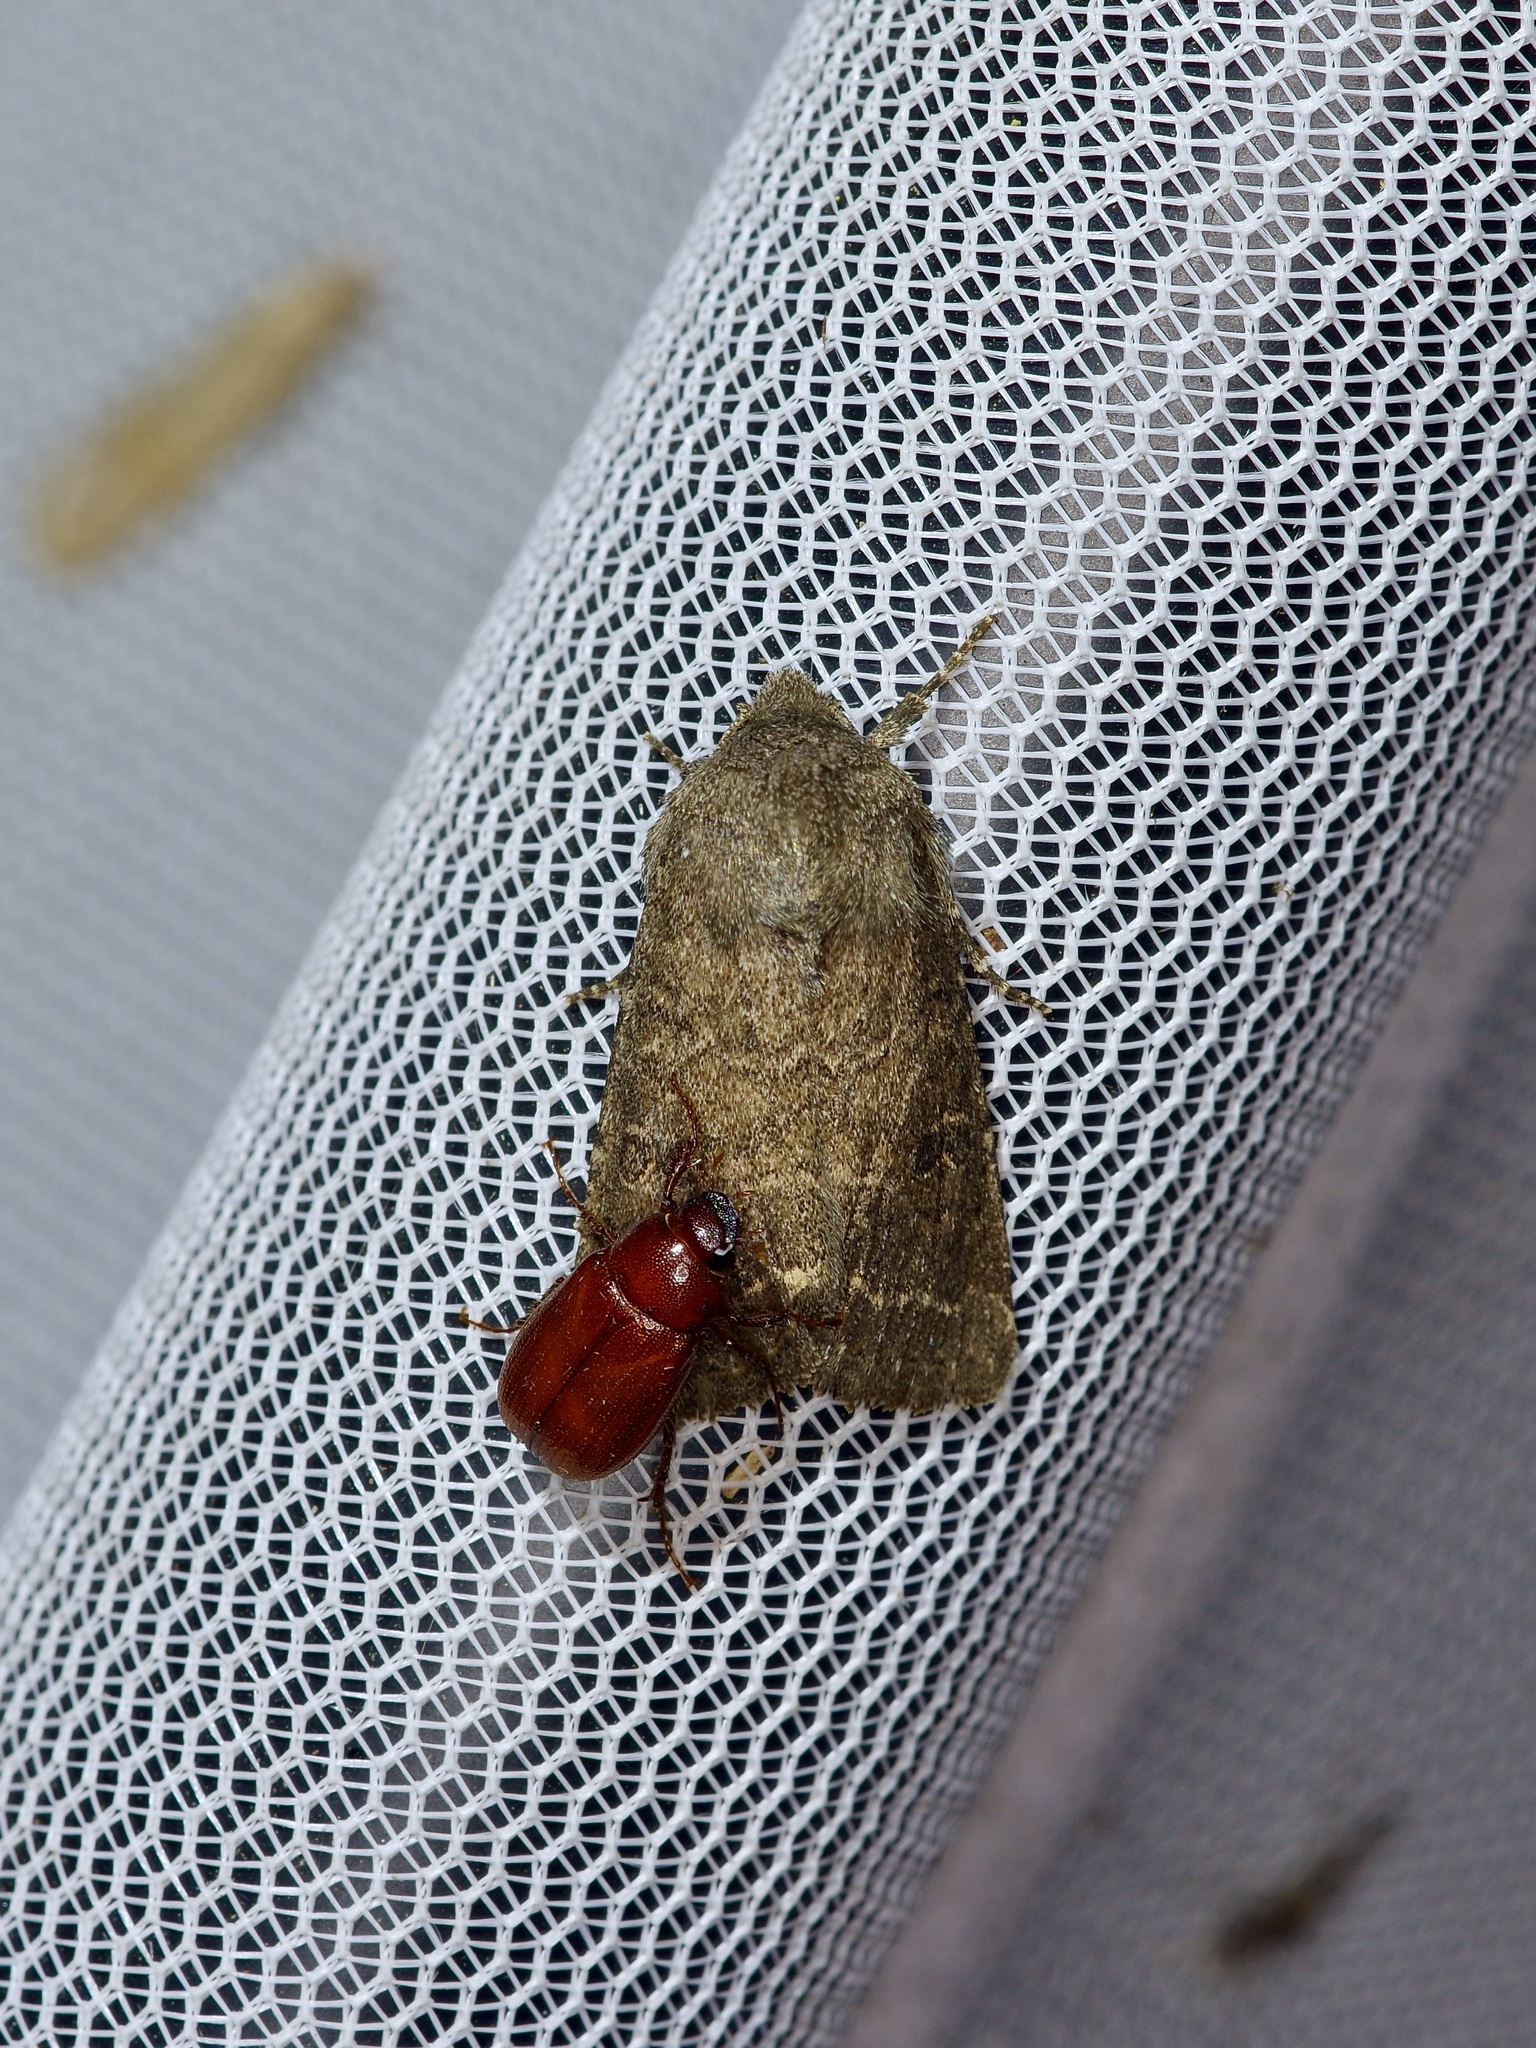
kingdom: Animalia
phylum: Arthropoda
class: Insecta
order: Lepidoptera
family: Noctuidae
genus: Trichopolia
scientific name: Trichopolia
